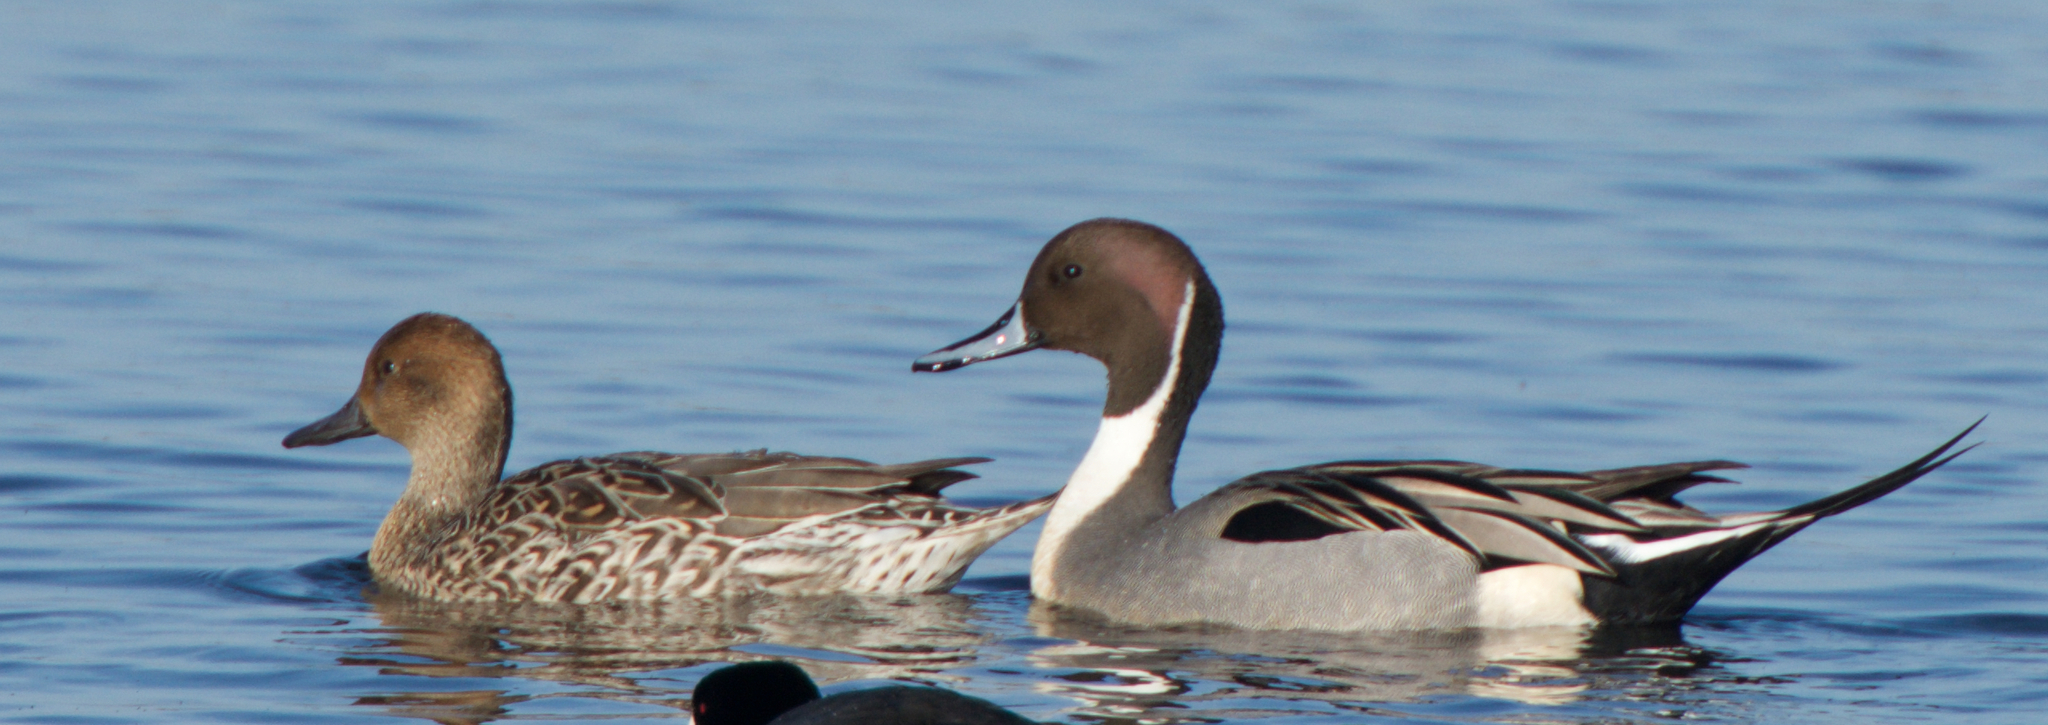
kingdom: Animalia
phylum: Chordata
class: Aves
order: Anseriformes
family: Anatidae
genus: Anas
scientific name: Anas acuta
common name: Northern pintail
